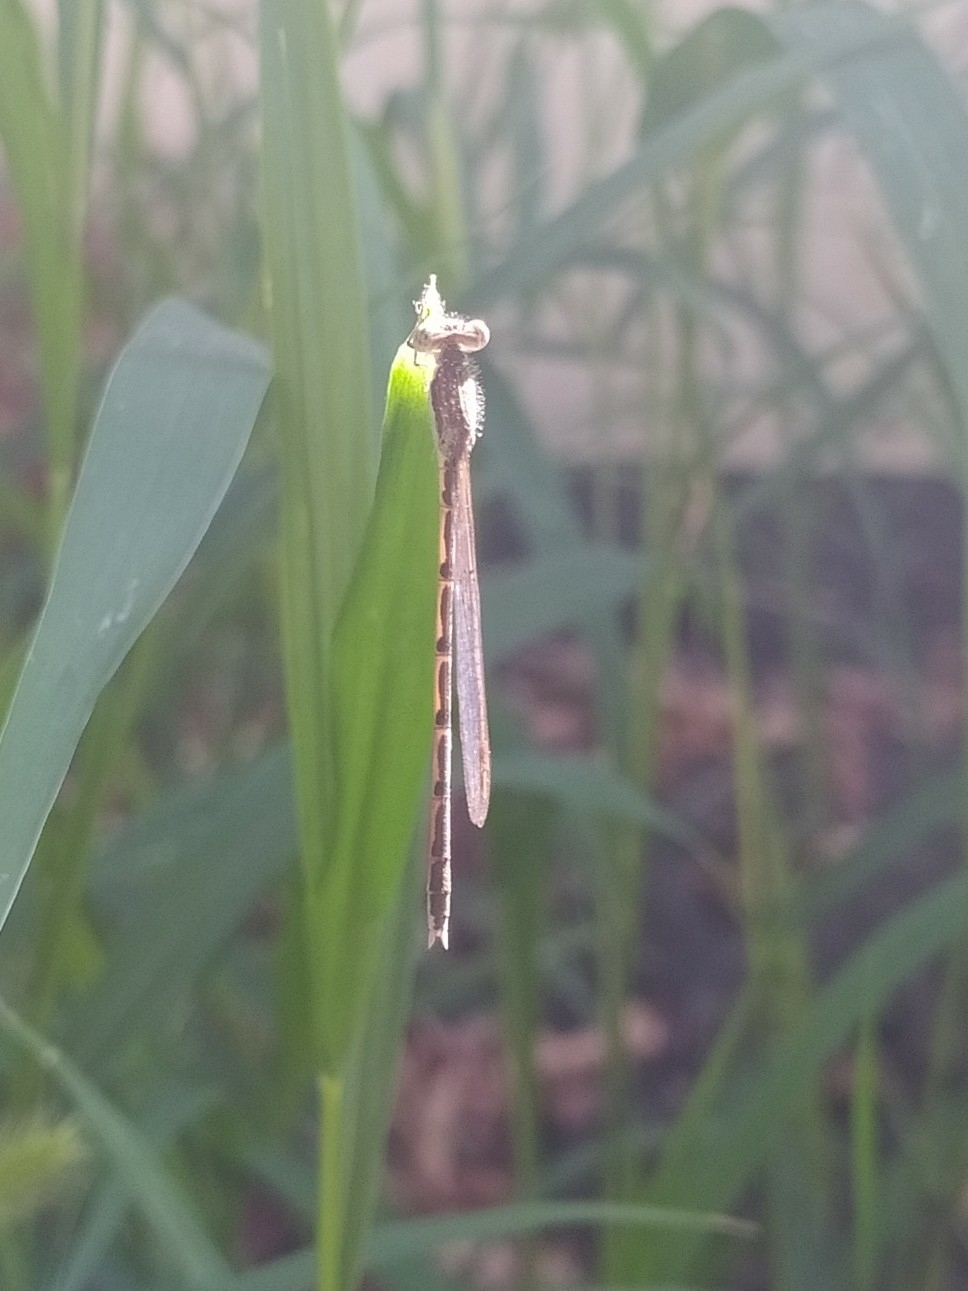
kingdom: Animalia
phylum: Arthropoda
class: Insecta
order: Odonata
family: Lestidae
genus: Sympecma
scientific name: Sympecma fusca
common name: Common winter damsel
